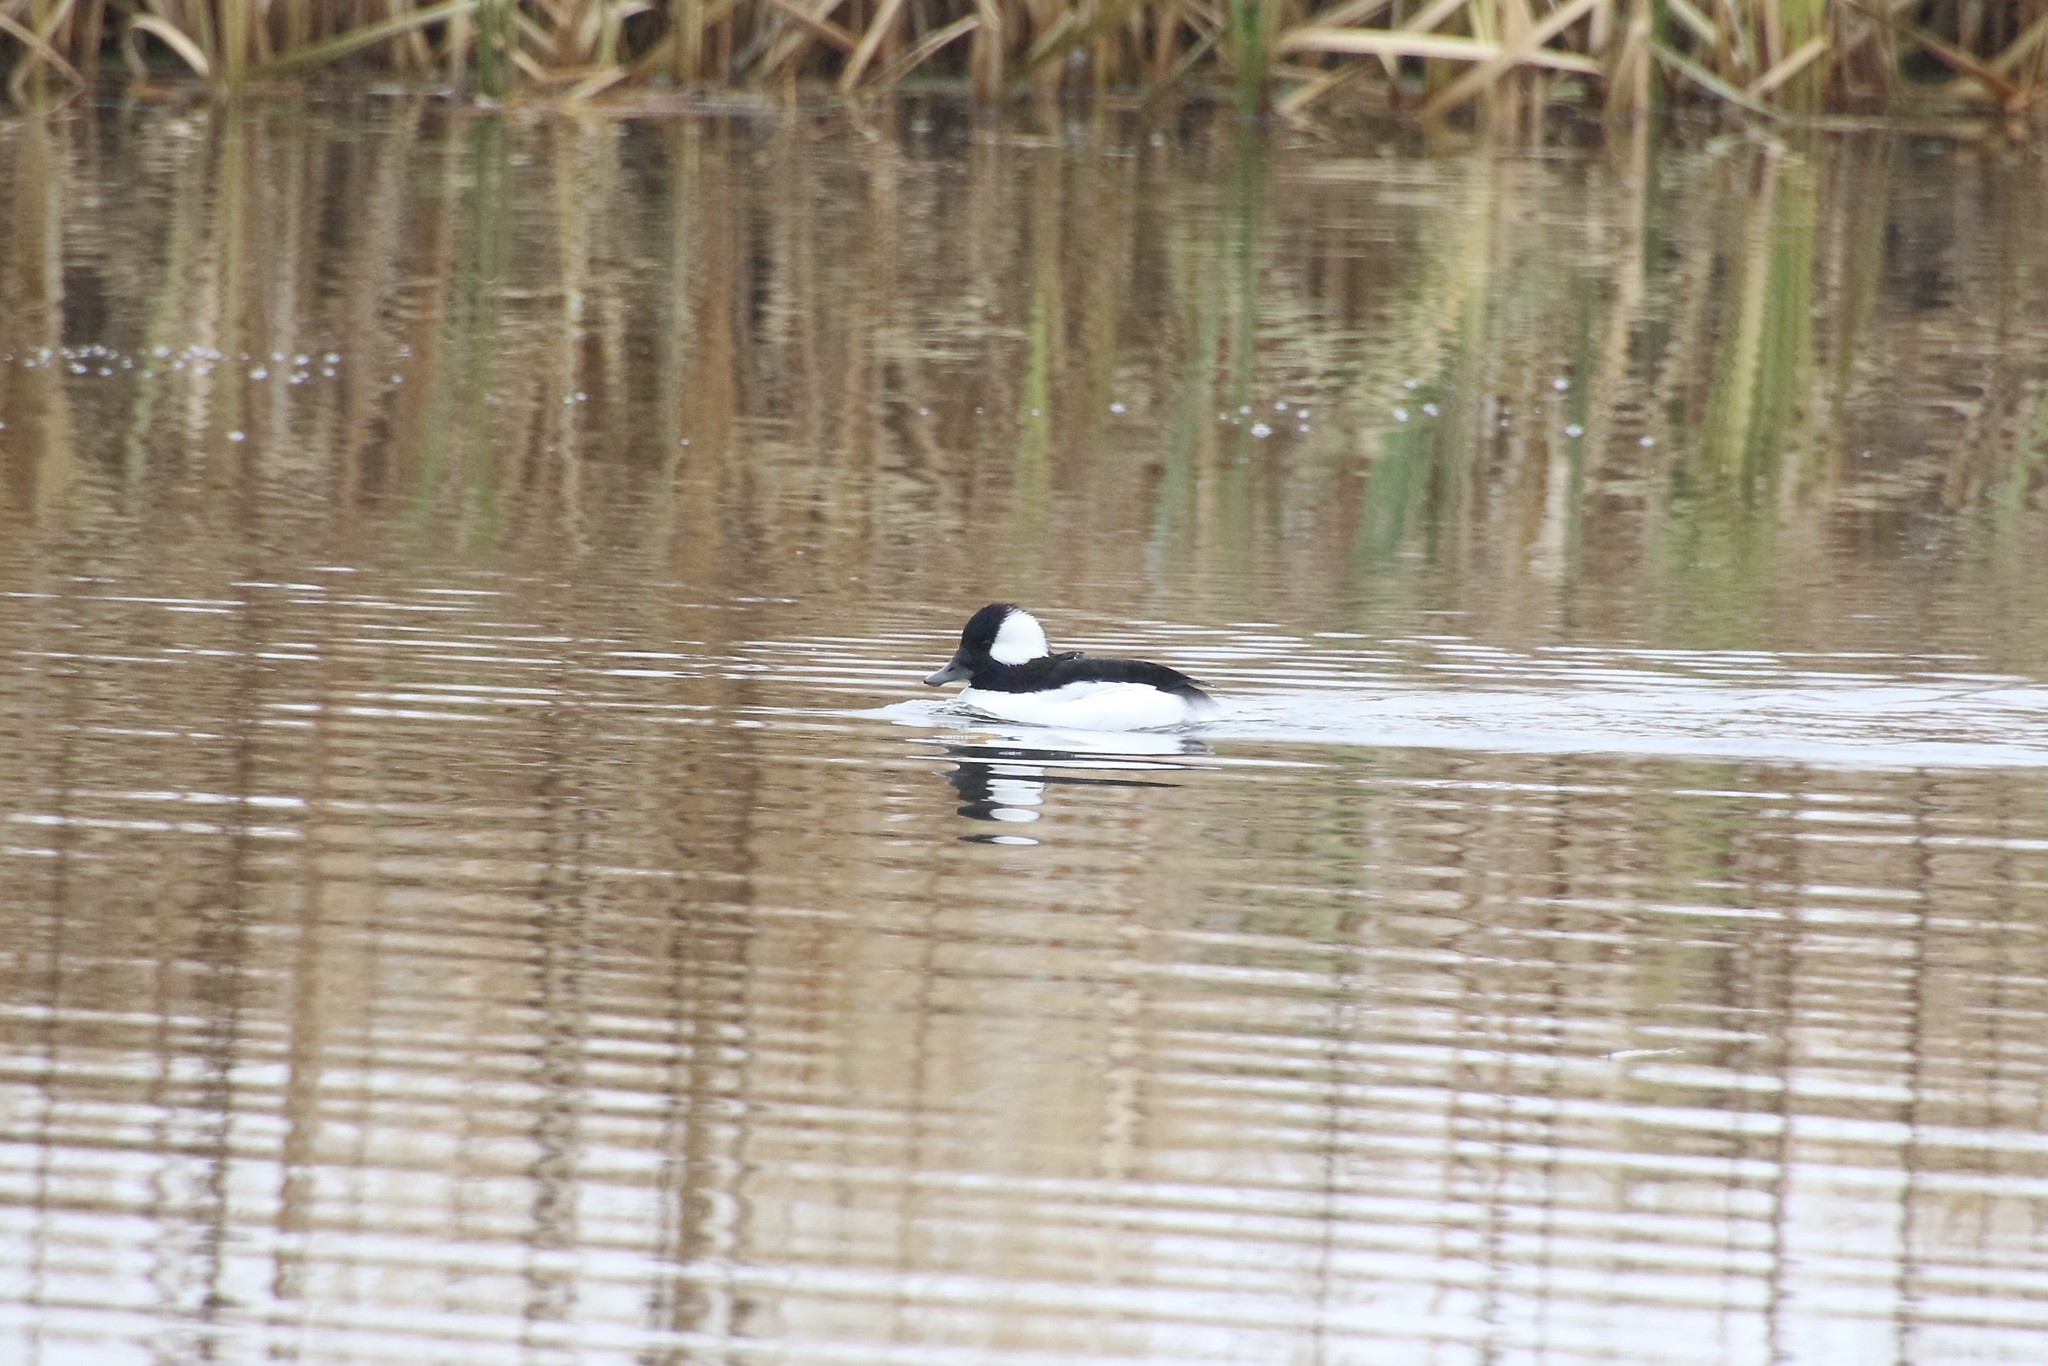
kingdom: Animalia
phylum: Chordata
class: Aves
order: Anseriformes
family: Anatidae
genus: Bucephala
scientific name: Bucephala albeola
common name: Bufflehead
